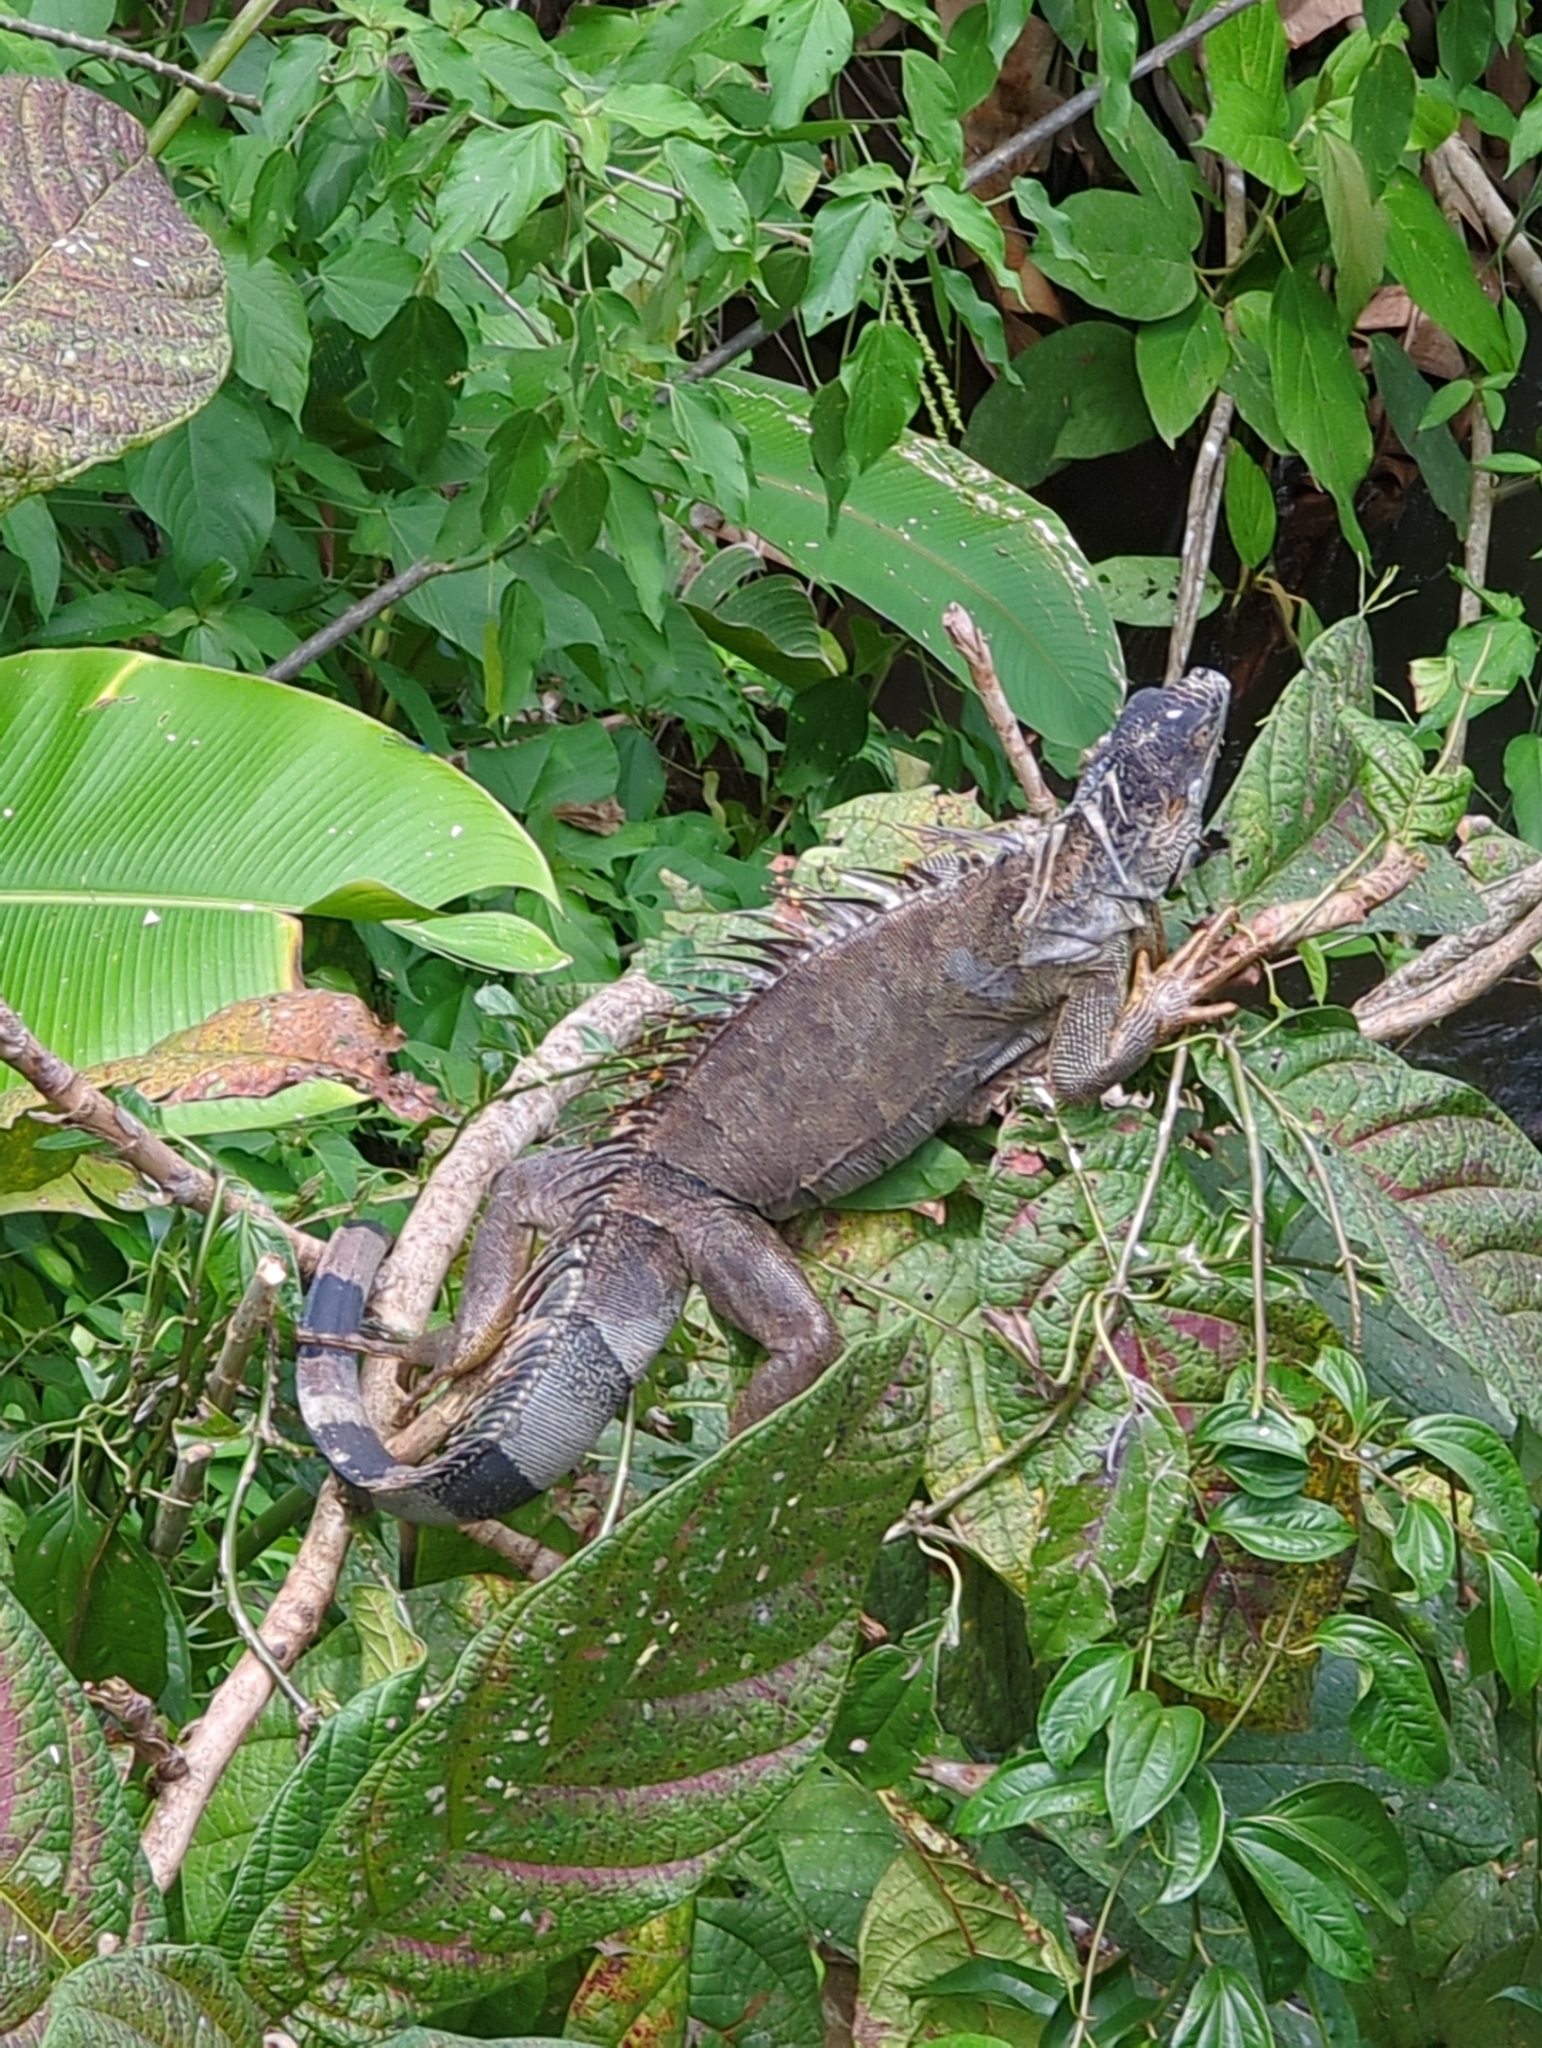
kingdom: Animalia
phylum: Chordata
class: Squamata
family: Iguanidae
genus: Iguana
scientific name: Iguana iguana
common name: Green iguana
